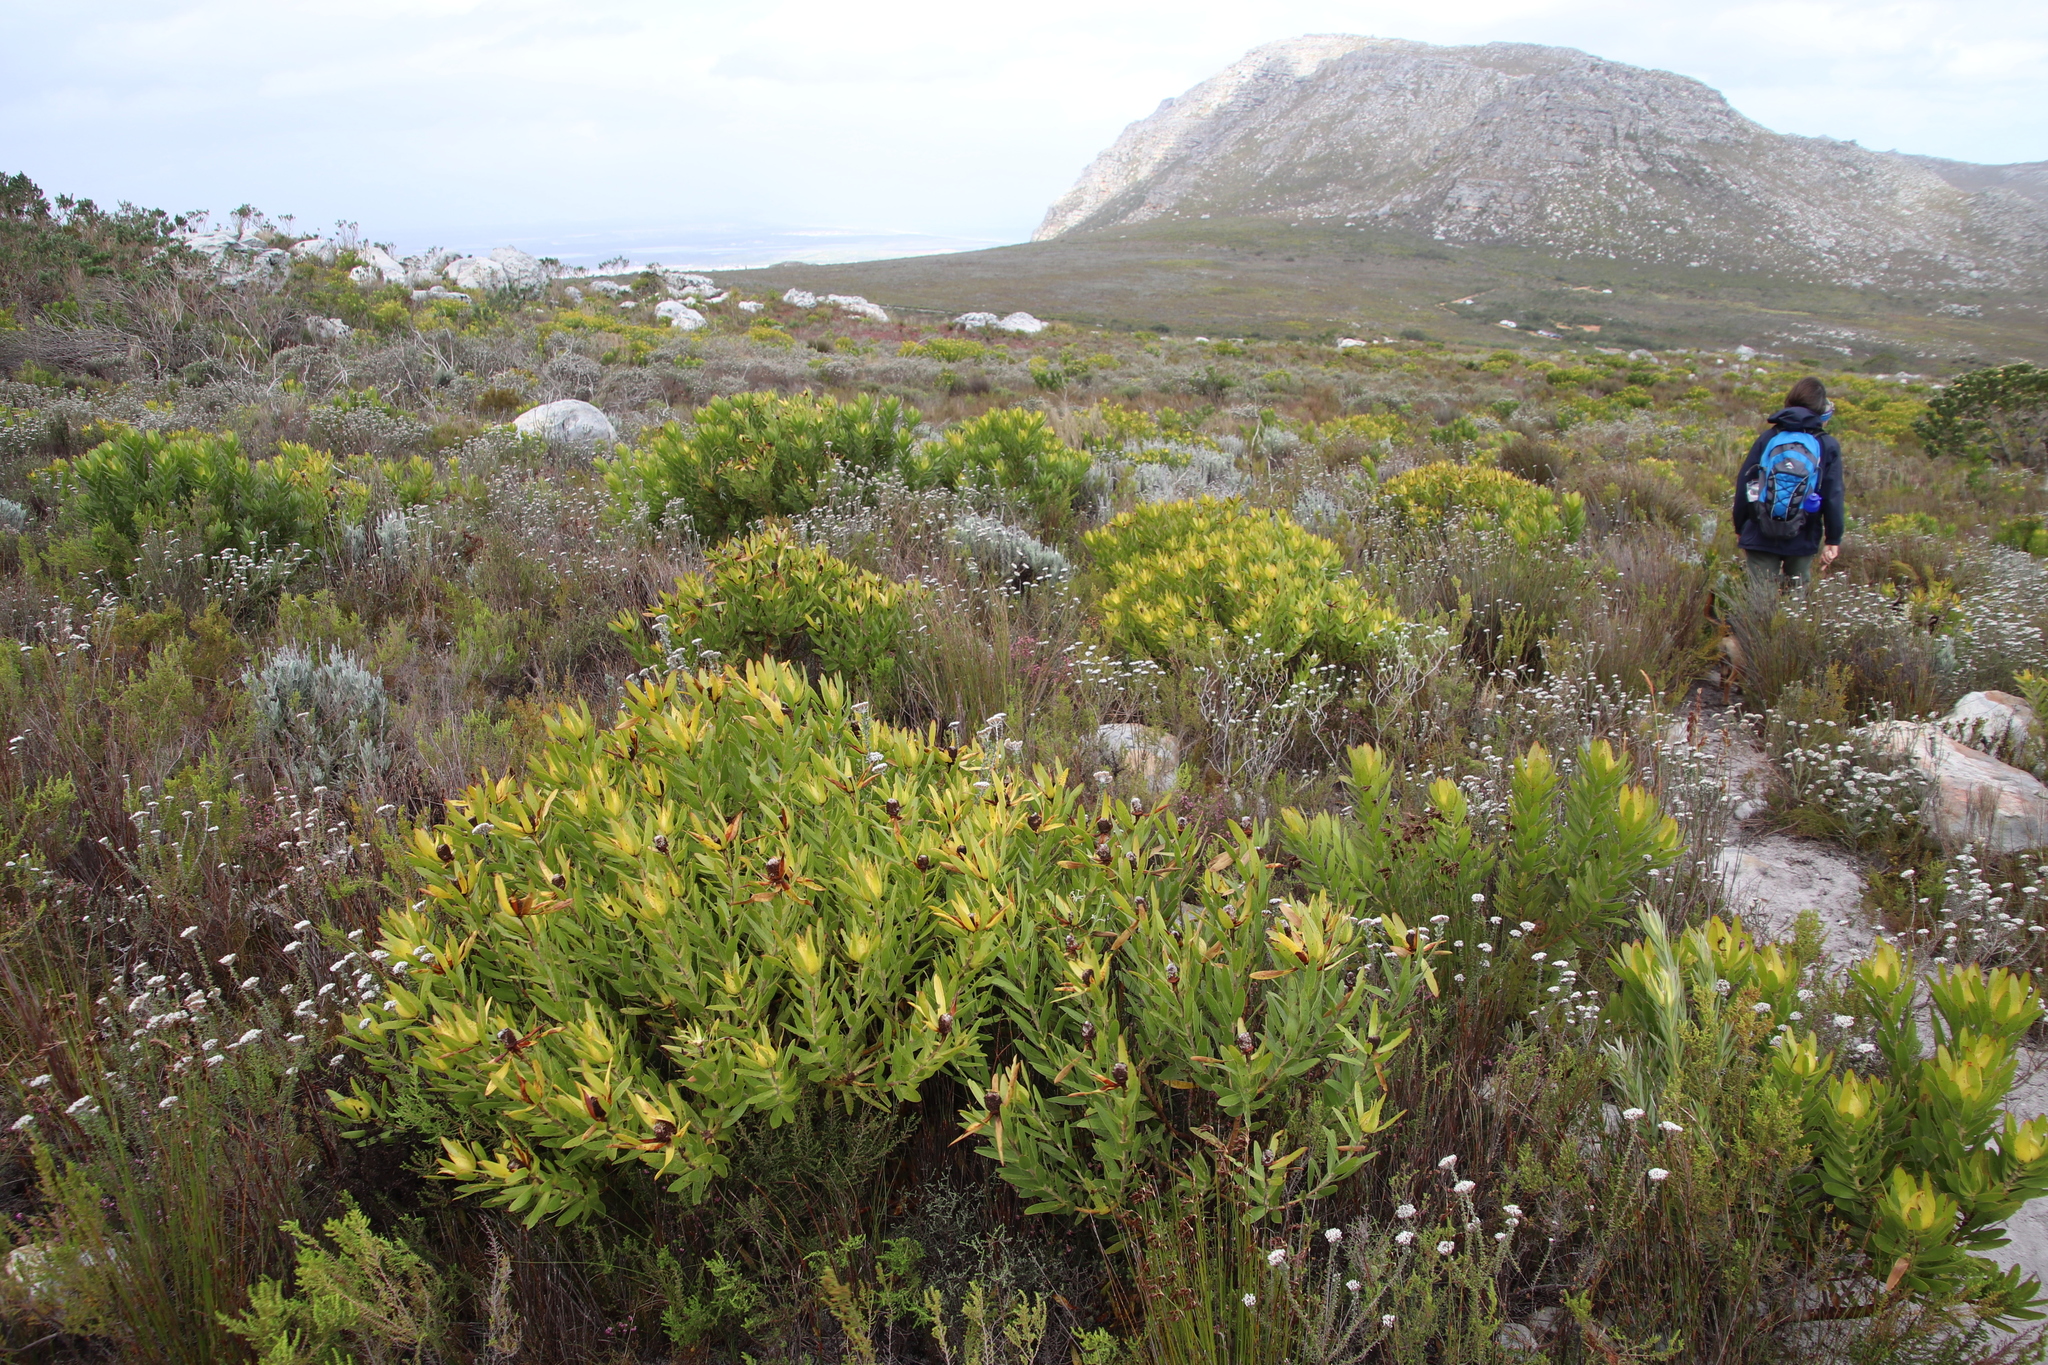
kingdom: Plantae
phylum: Tracheophyta
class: Magnoliopsida
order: Proteales
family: Proteaceae
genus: Leucadendron
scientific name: Leucadendron laureolum
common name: Golden sunshinebush
